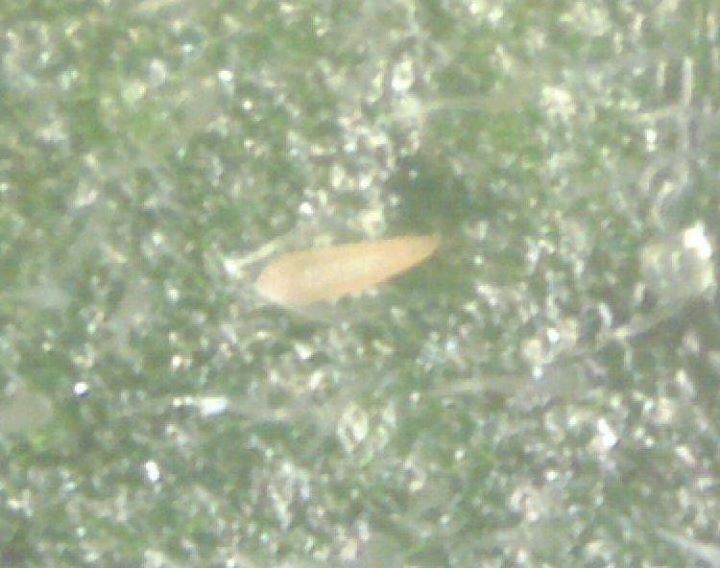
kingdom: Animalia
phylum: Arthropoda
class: Arachnida
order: Trombidiformes
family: Eriophyidae
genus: Tetra
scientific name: Tetra lycopersici
